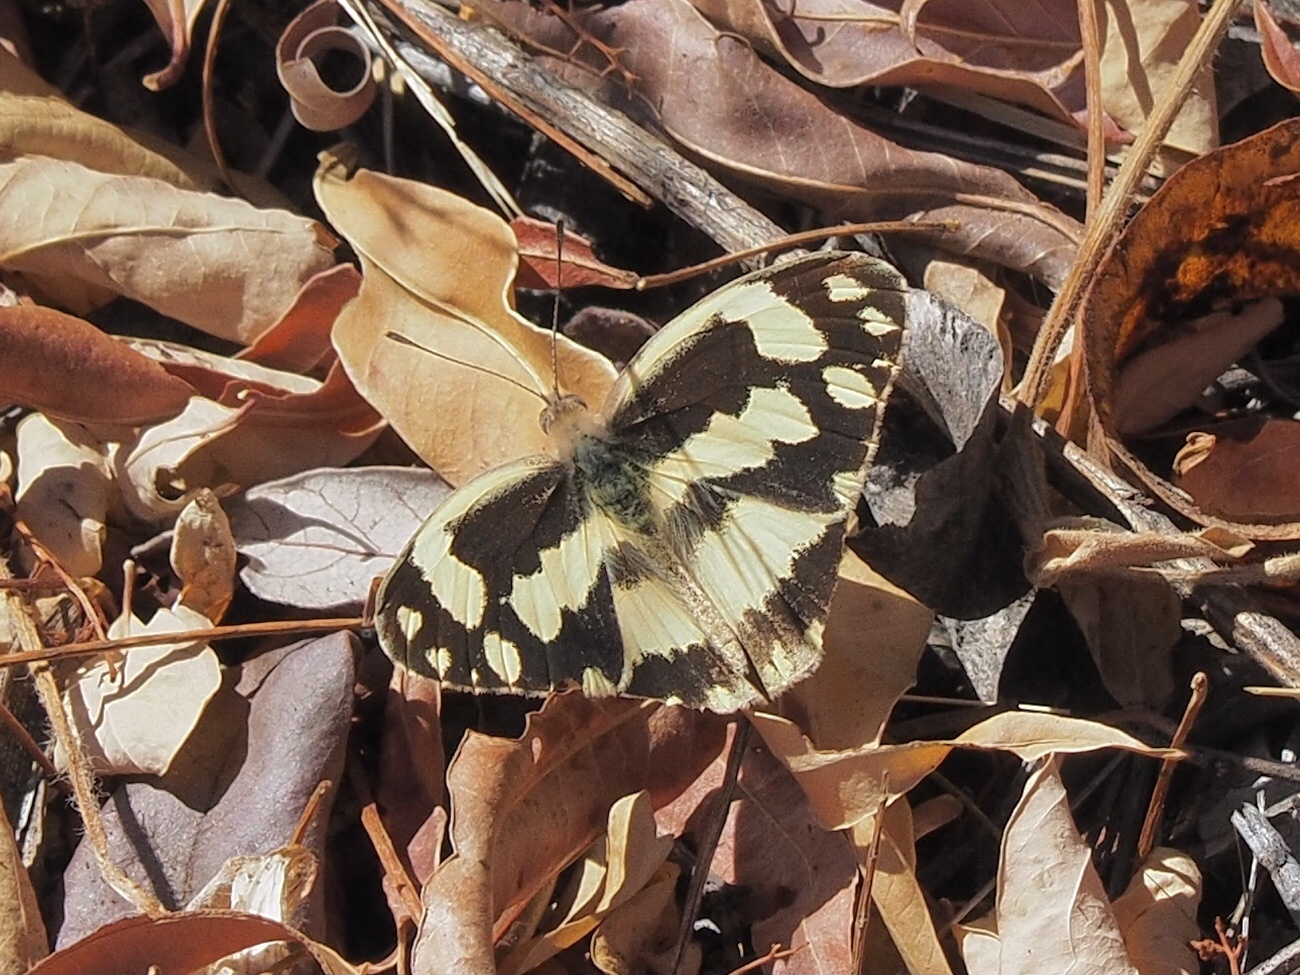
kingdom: Animalia
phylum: Arthropoda
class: Insecta
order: Lepidoptera
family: Pieridae
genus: Pinacopteryx
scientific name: Pinacopteryx eriphia
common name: Zebra white
